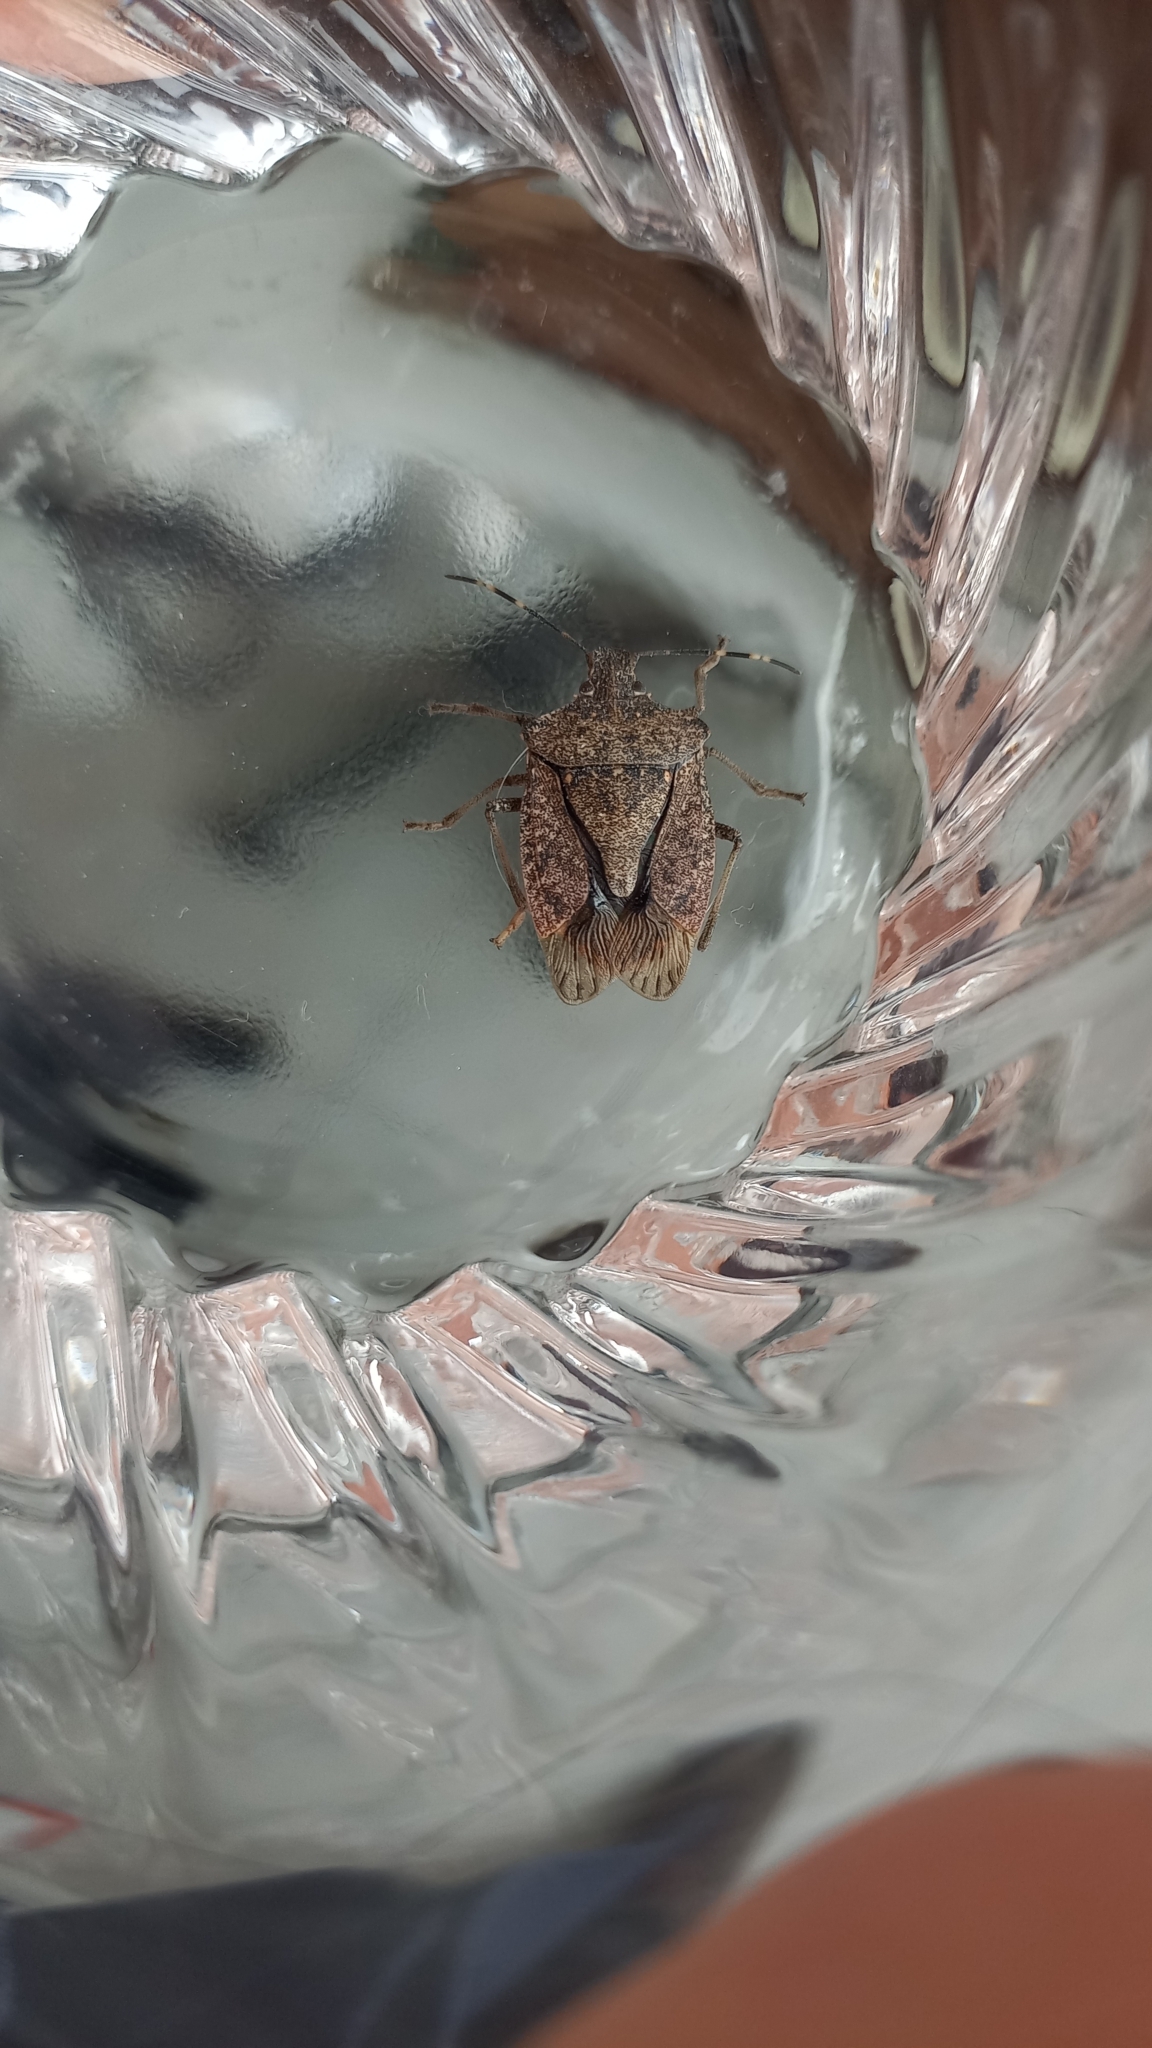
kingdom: Animalia
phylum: Arthropoda
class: Insecta
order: Hemiptera
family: Pentatomidae
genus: Halyomorpha
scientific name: Halyomorpha halys
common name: Brown marmorated stink bug
